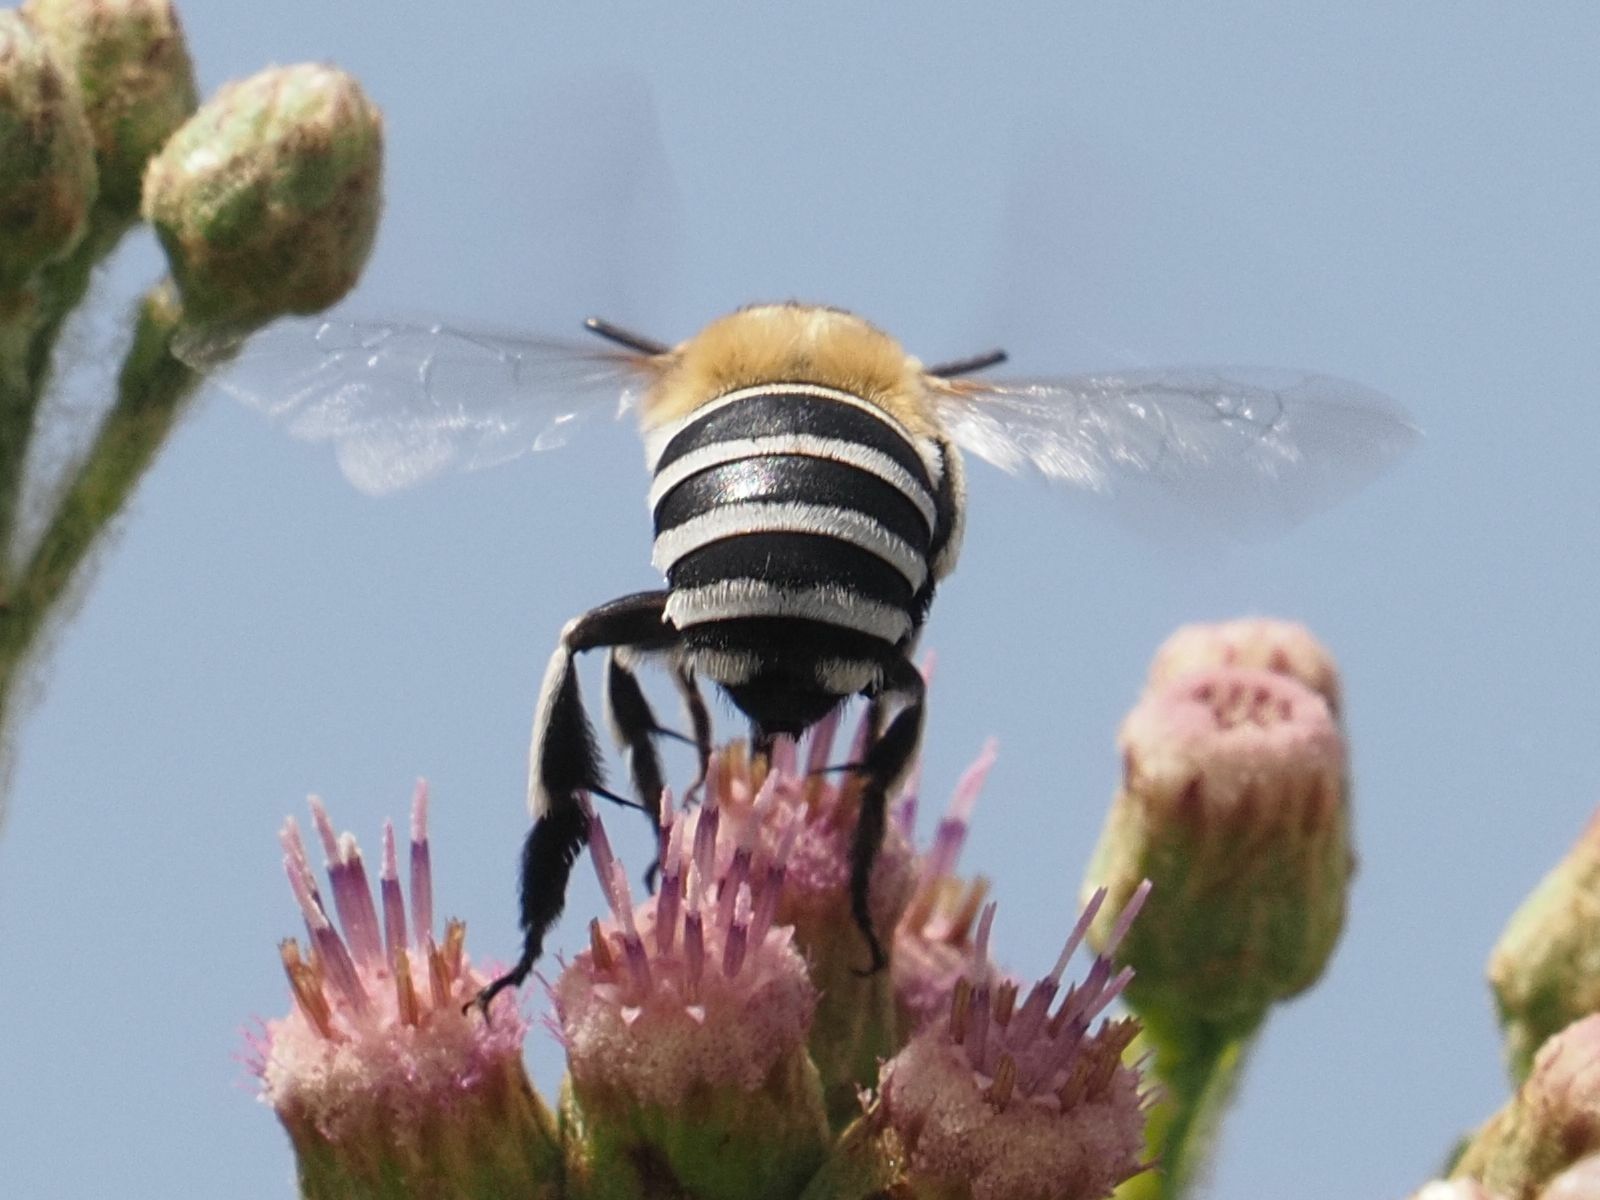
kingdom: Animalia
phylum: Arthropoda
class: Insecta
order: Hymenoptera
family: Apidae
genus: Amegilla
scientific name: Amegilla quadrifasciata
